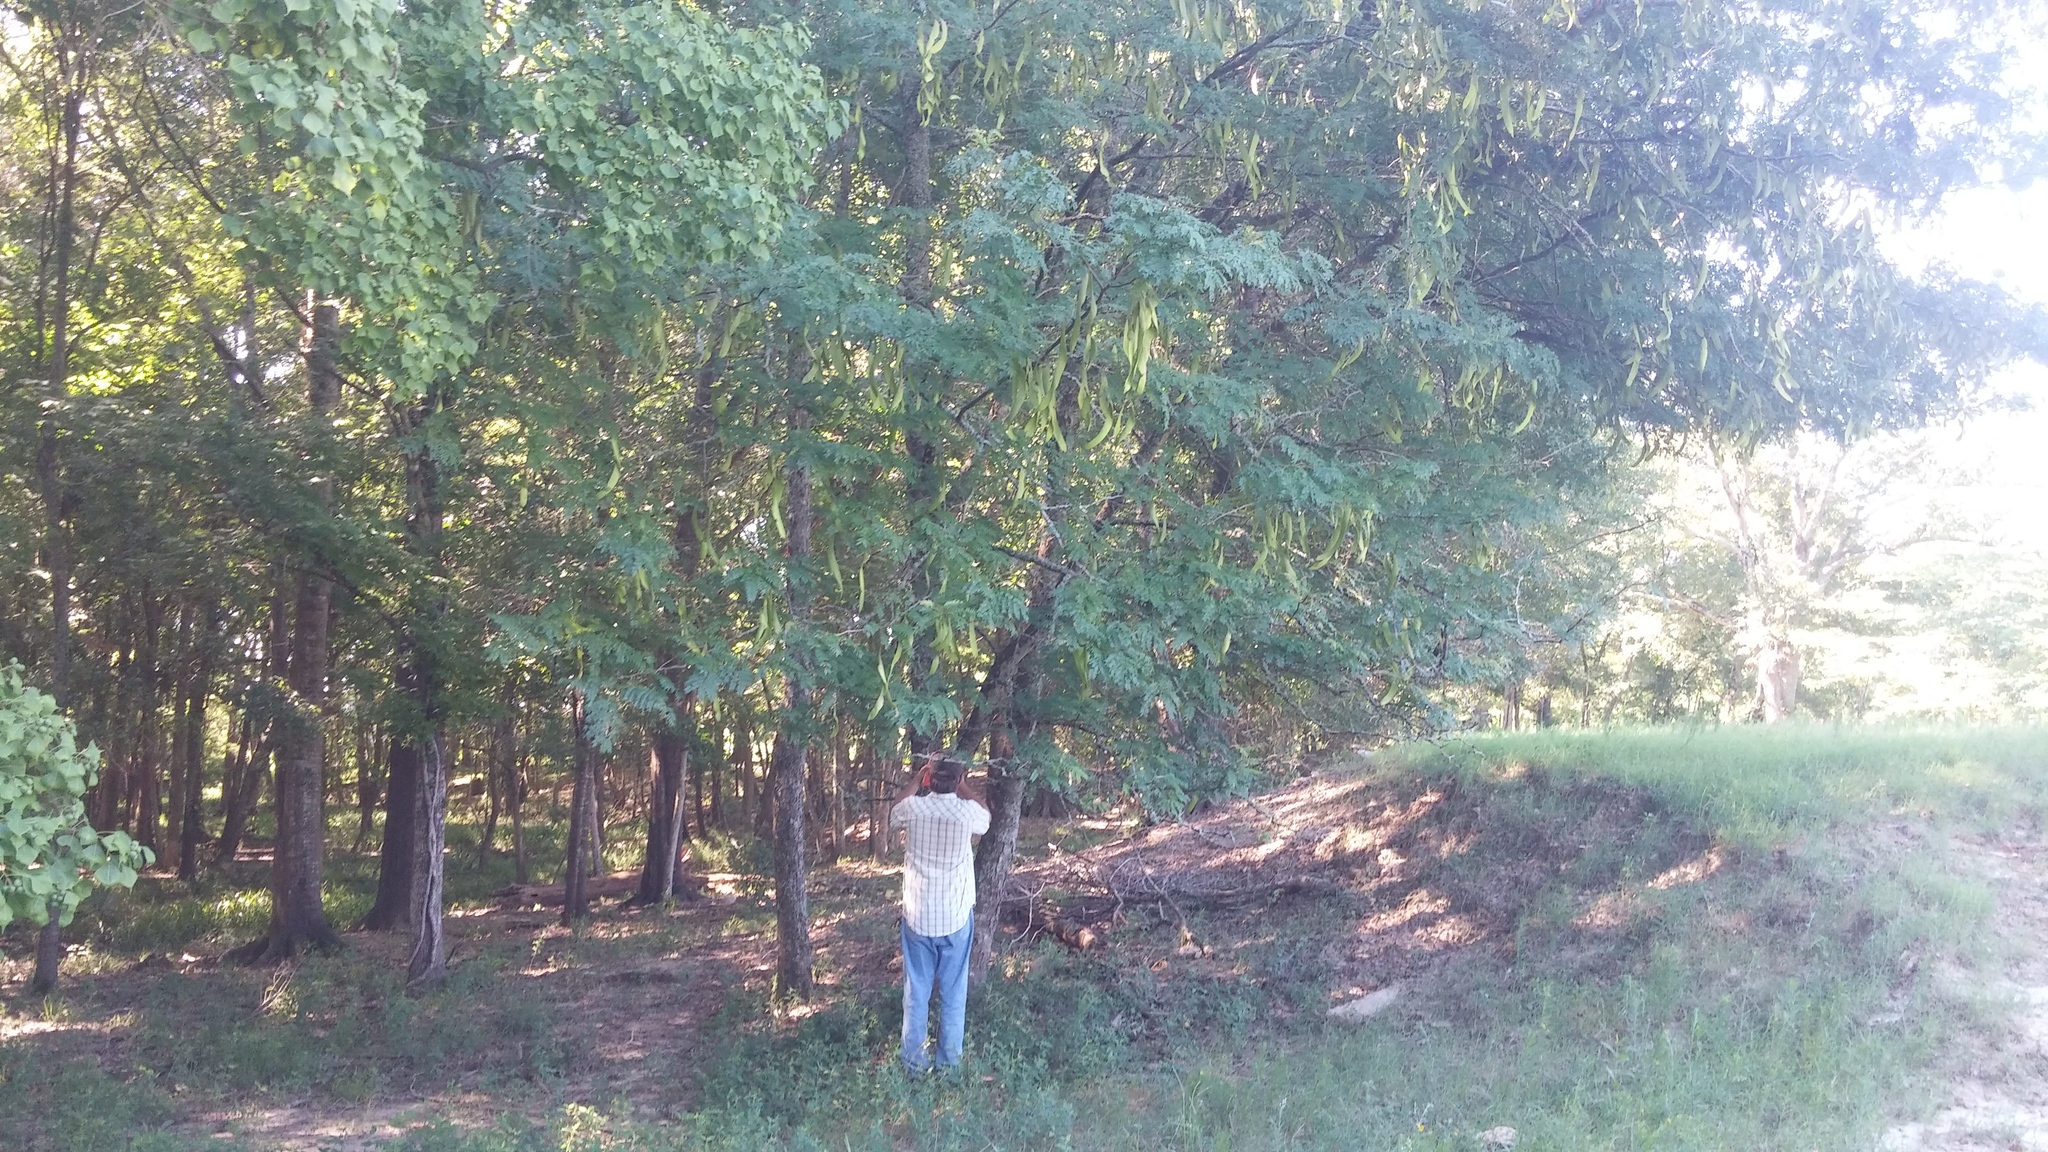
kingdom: Plantae
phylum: Tracheophyta
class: Magnoliopsida
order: Fabales
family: Fabaceae
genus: Gleditsia
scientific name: Gleditsia triacanthos
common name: Common honeylocust
